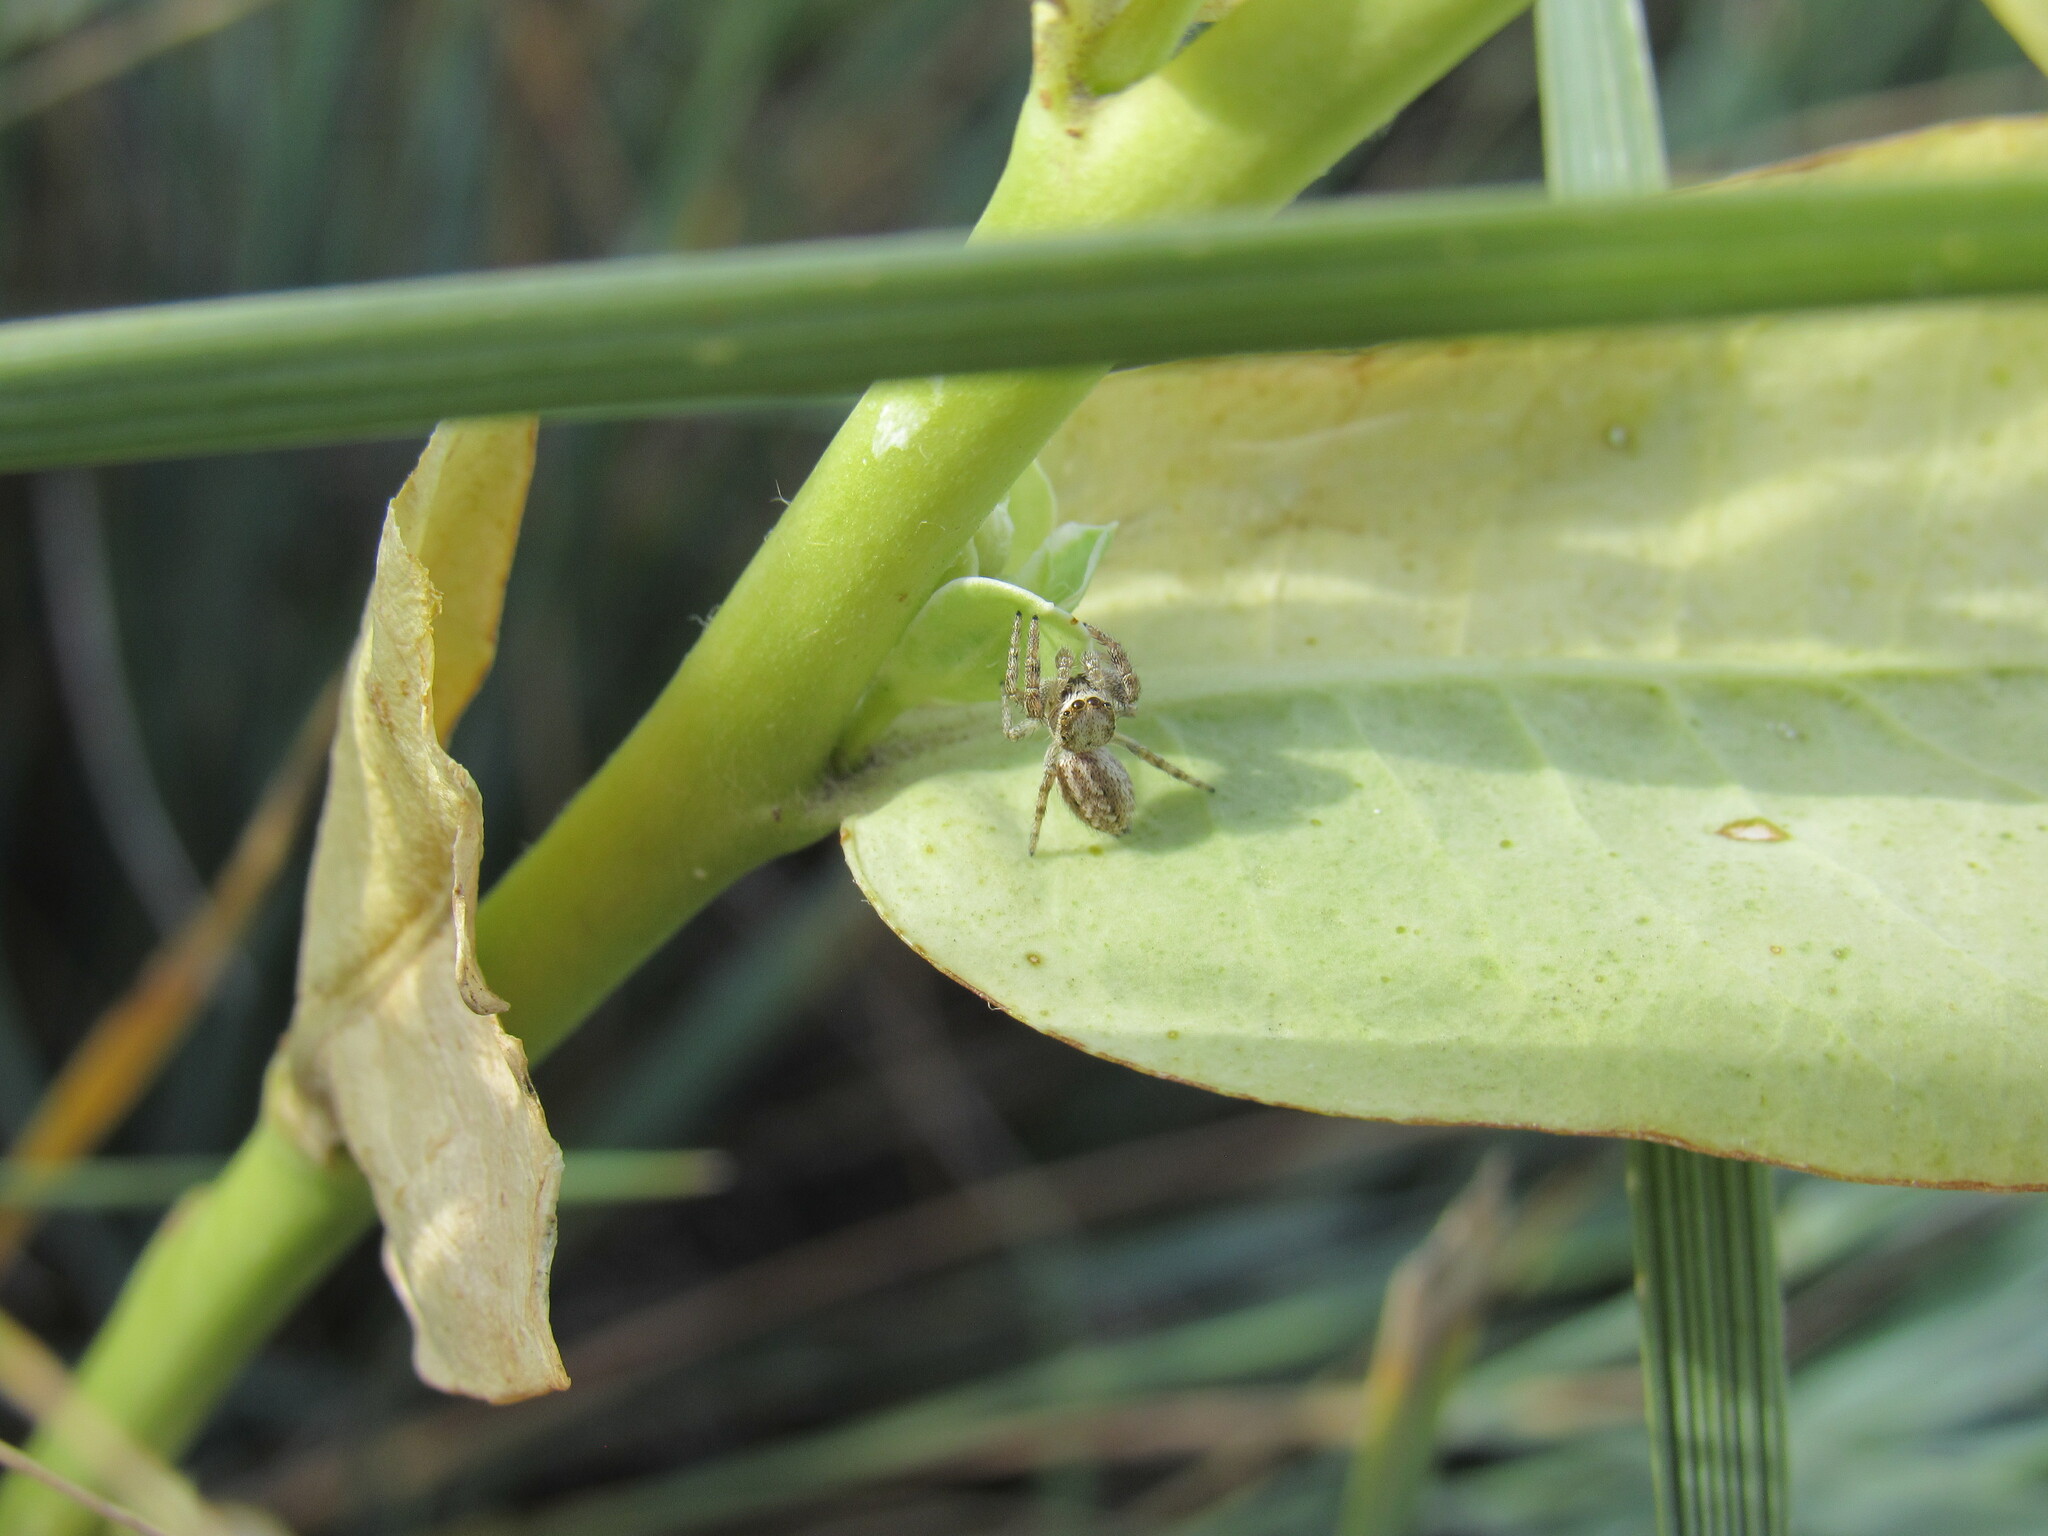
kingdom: Animalia
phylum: Arthropoda
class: Arachnida
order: Araneae
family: Salticidae
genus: Pelegrina
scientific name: Pelegrina arizonensis
